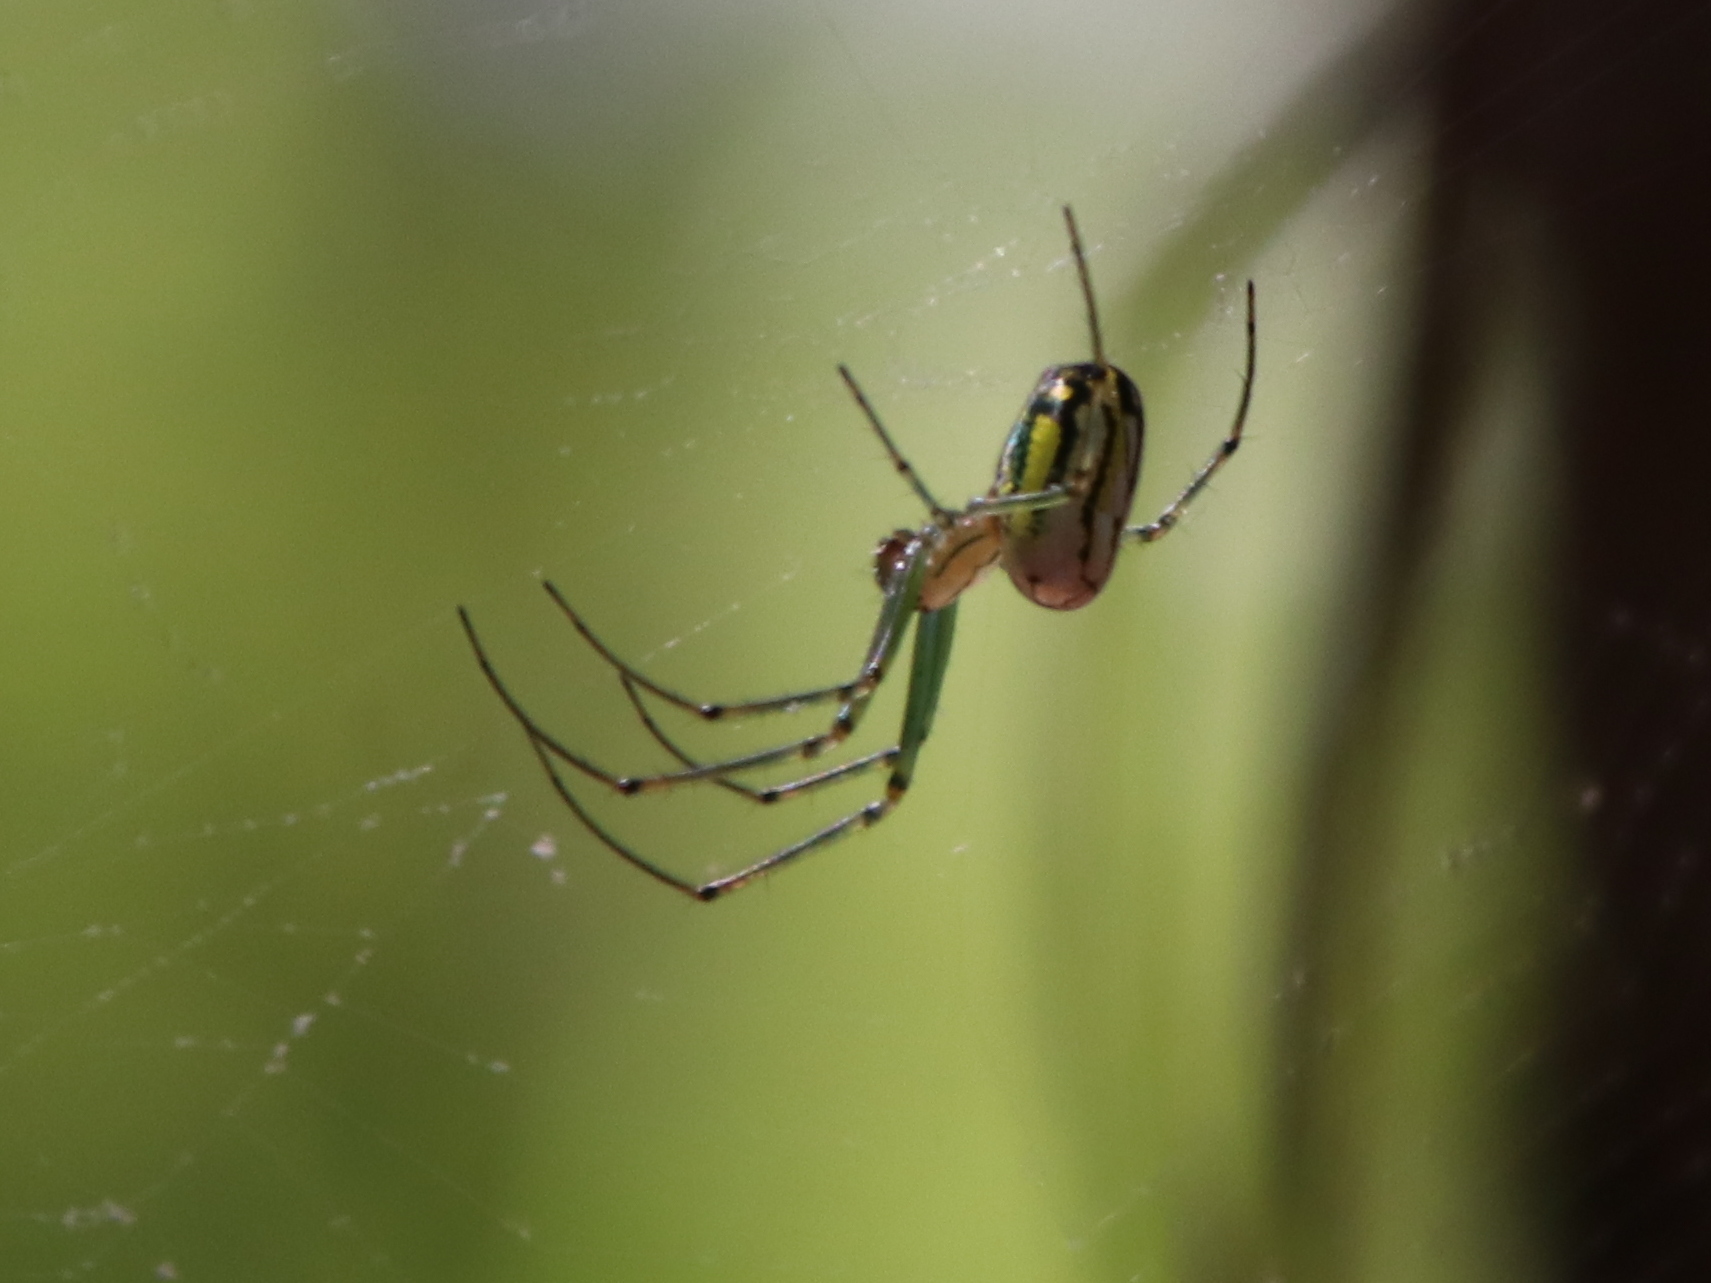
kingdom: Animalia
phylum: Arthropoda
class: Arachnida
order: Araneae
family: Tetragnathidae
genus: Leucauge
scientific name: Leucauge venusta
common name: Longjawed orb weavers
